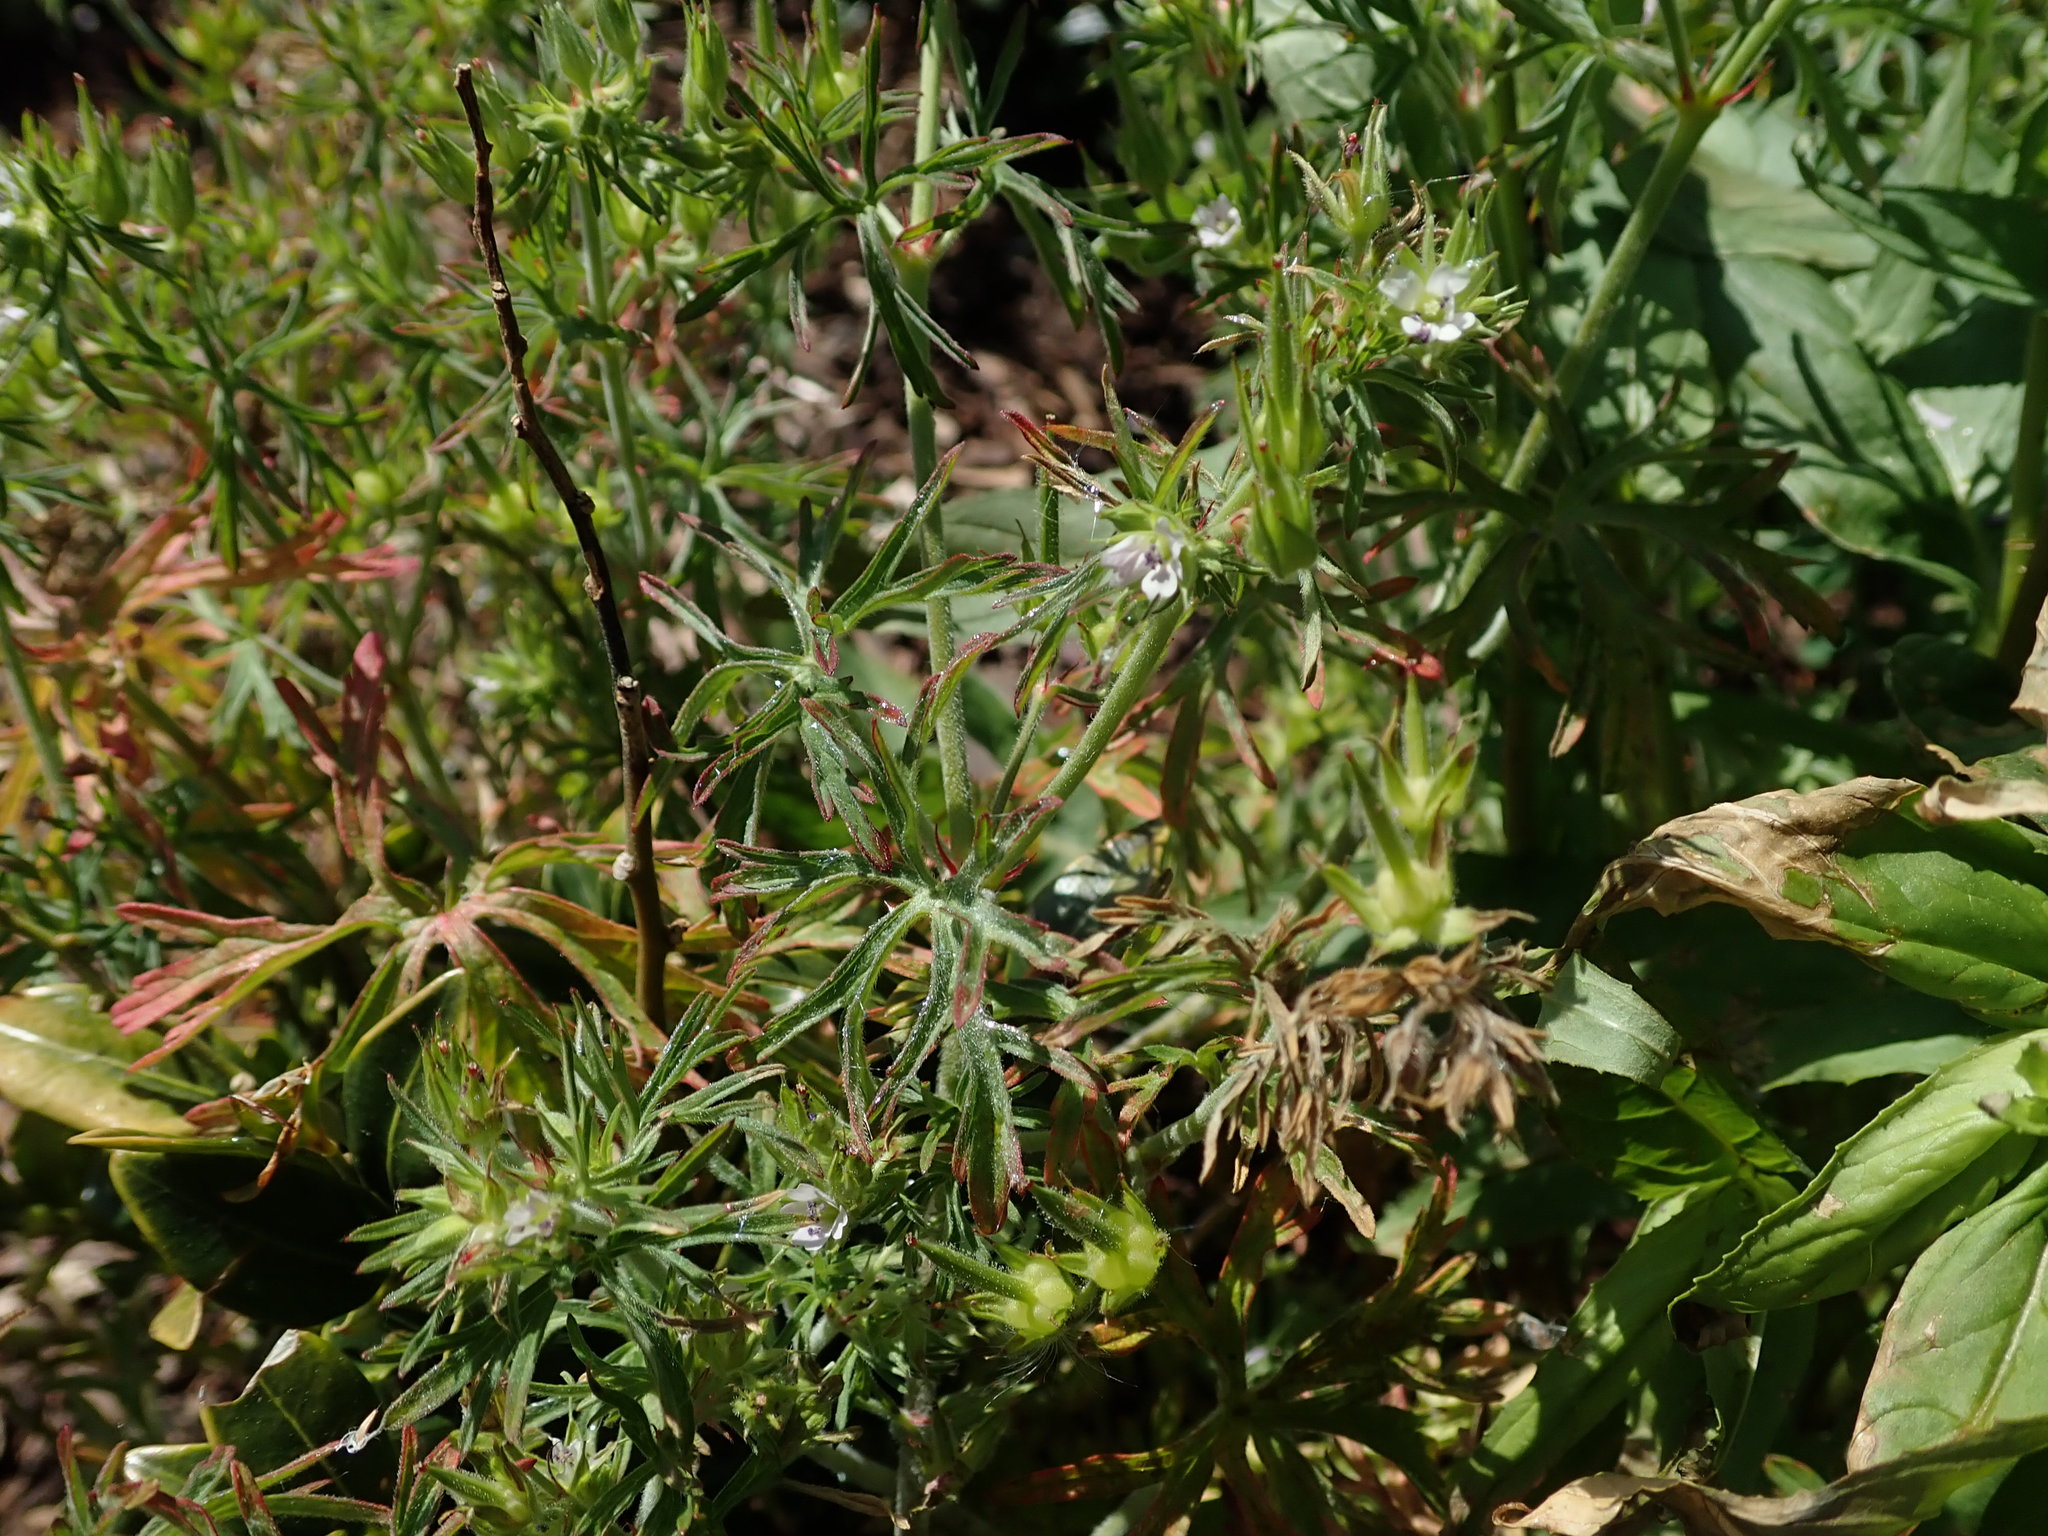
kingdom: Plantae
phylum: Tracheophyta
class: Magnoliopsida
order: Geraniales
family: Geraniaceae
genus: Geranium
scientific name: Geranium dissectum
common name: Cut-leaved crane's-bill
